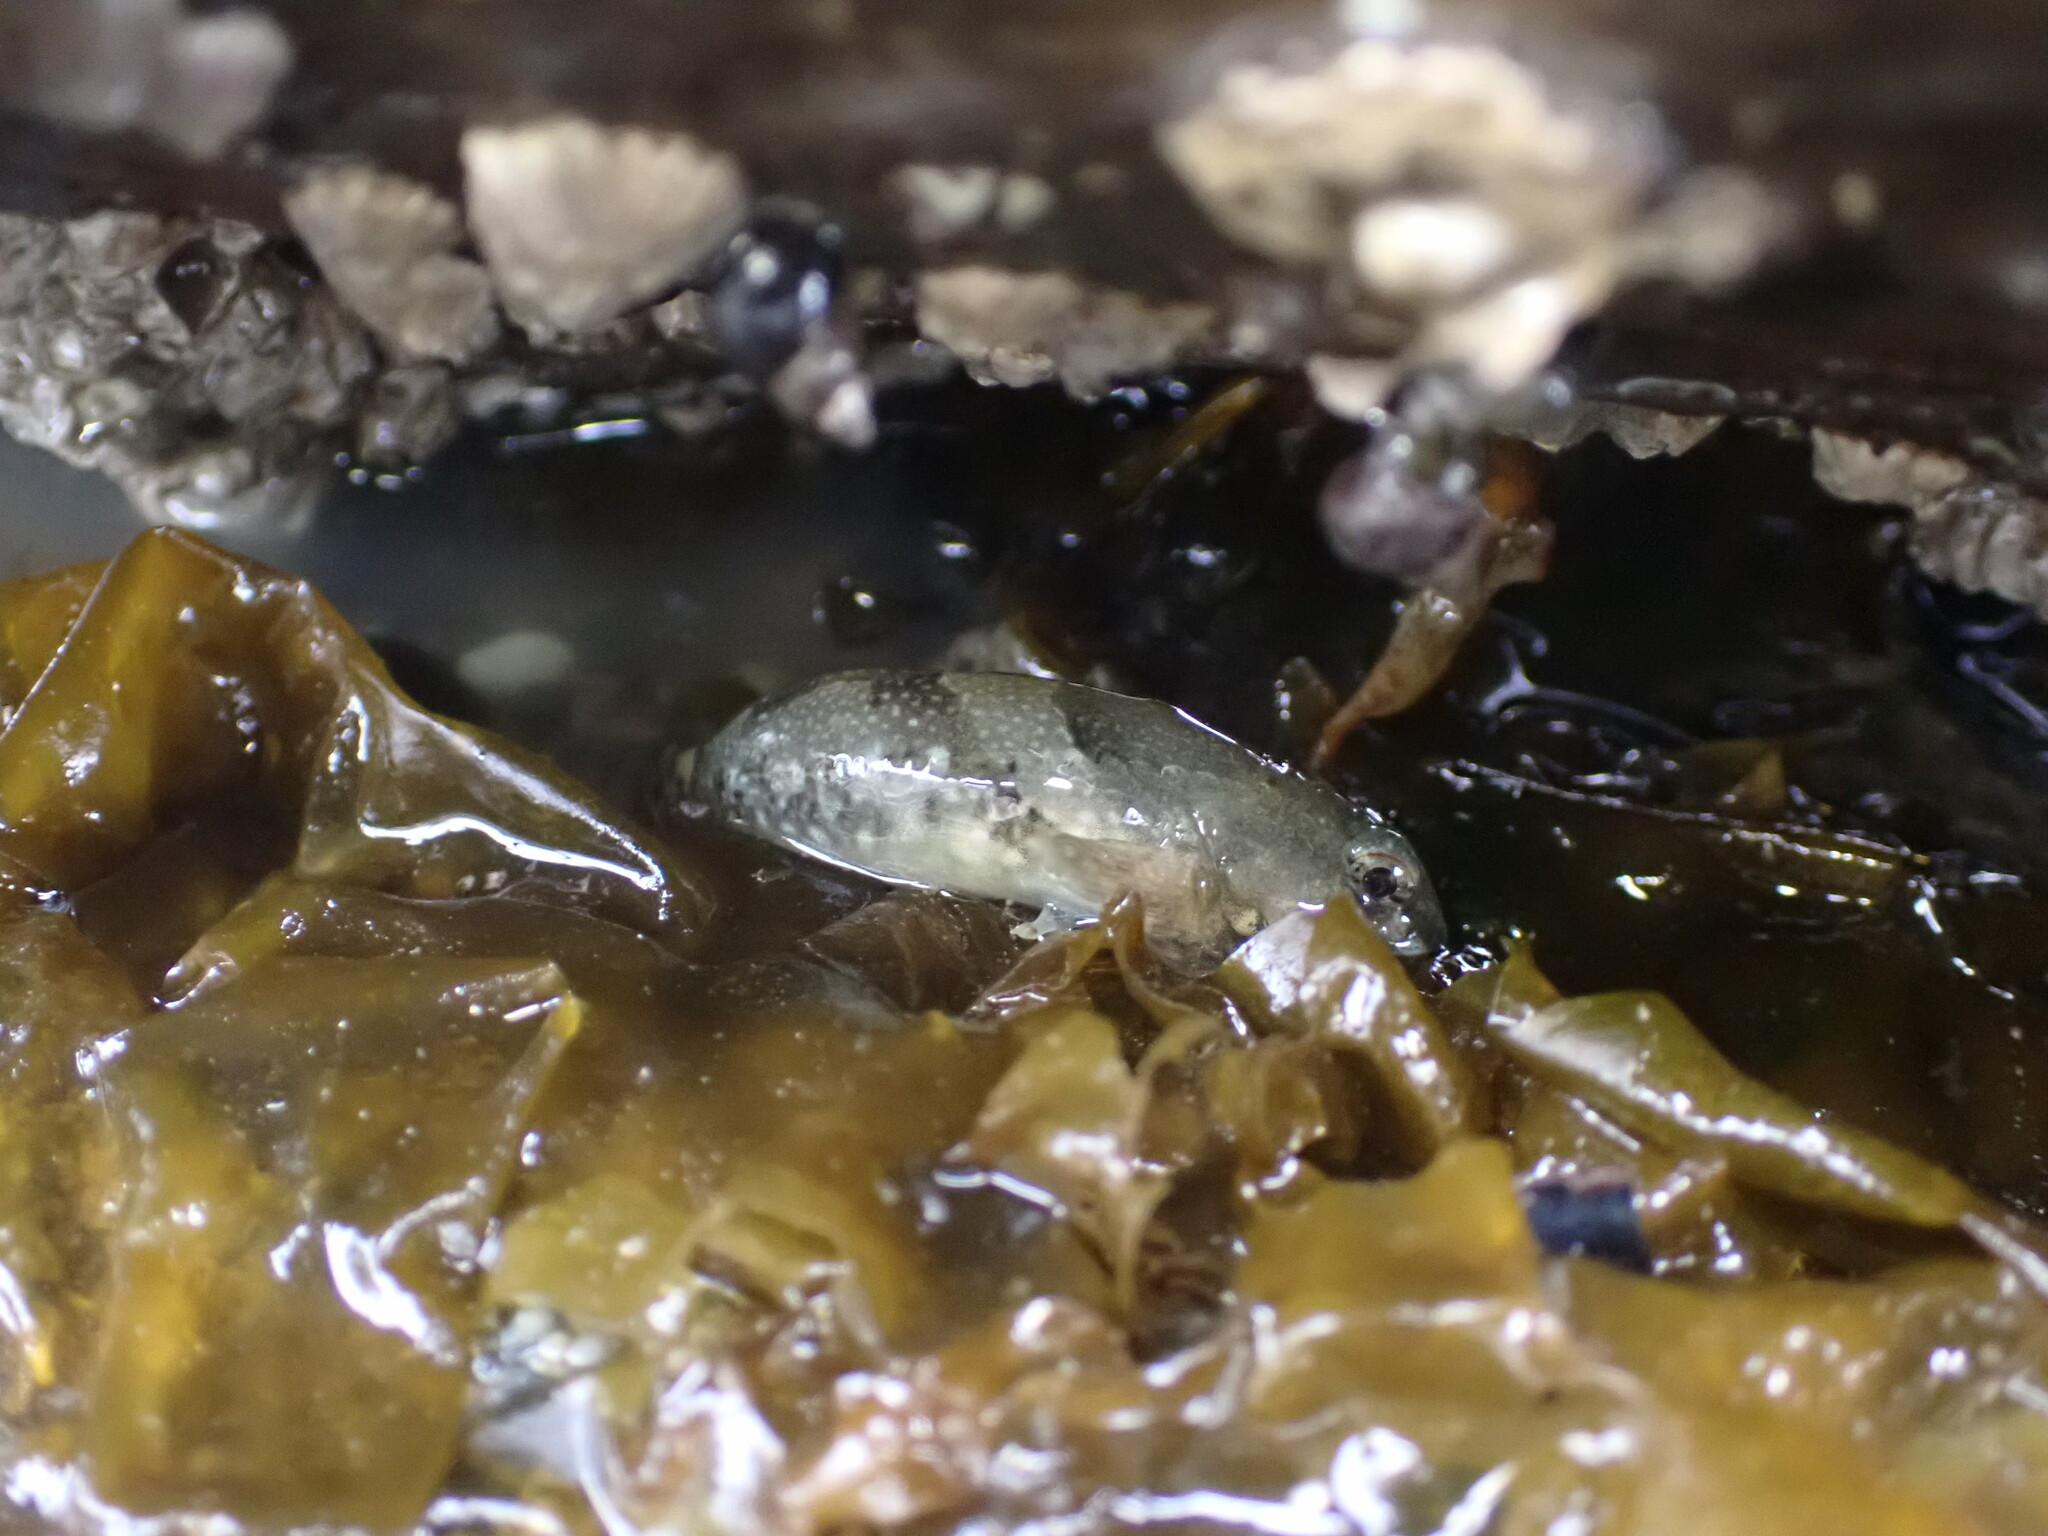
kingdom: Animalia
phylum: Chordata
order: Scorpaeniformes
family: Cottidae
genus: Oligocottus
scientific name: Oligocottus maculosus
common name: Tidepool sculpin
